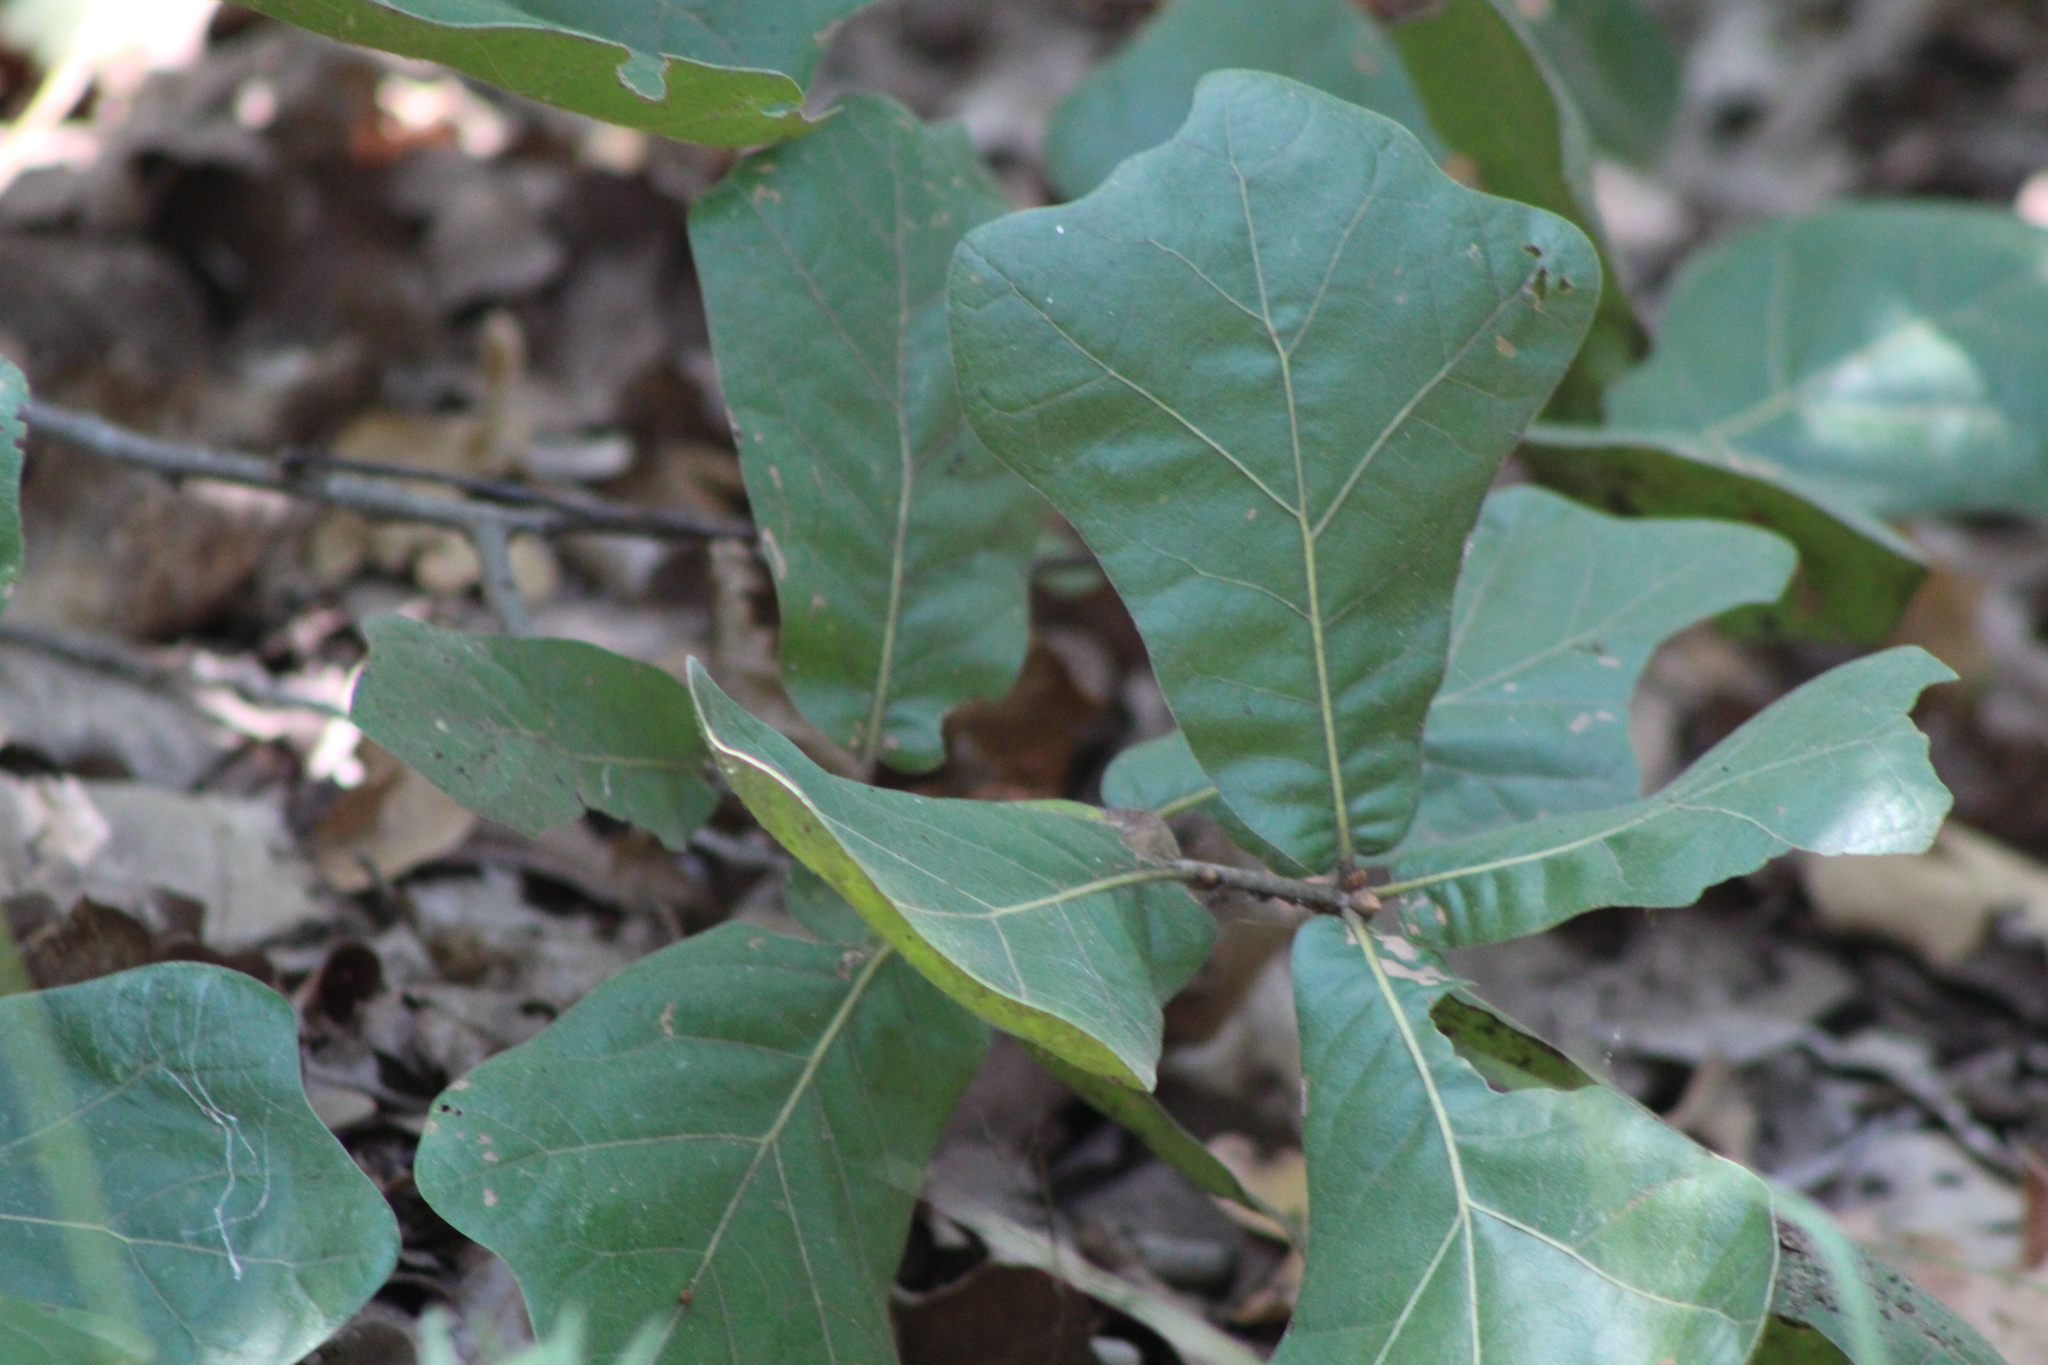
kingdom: Plantae
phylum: Tracheophyta
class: Magnoliopsida
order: Fagales
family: Fagaceae
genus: Quercus
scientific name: Quercus nigra
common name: Water oak
